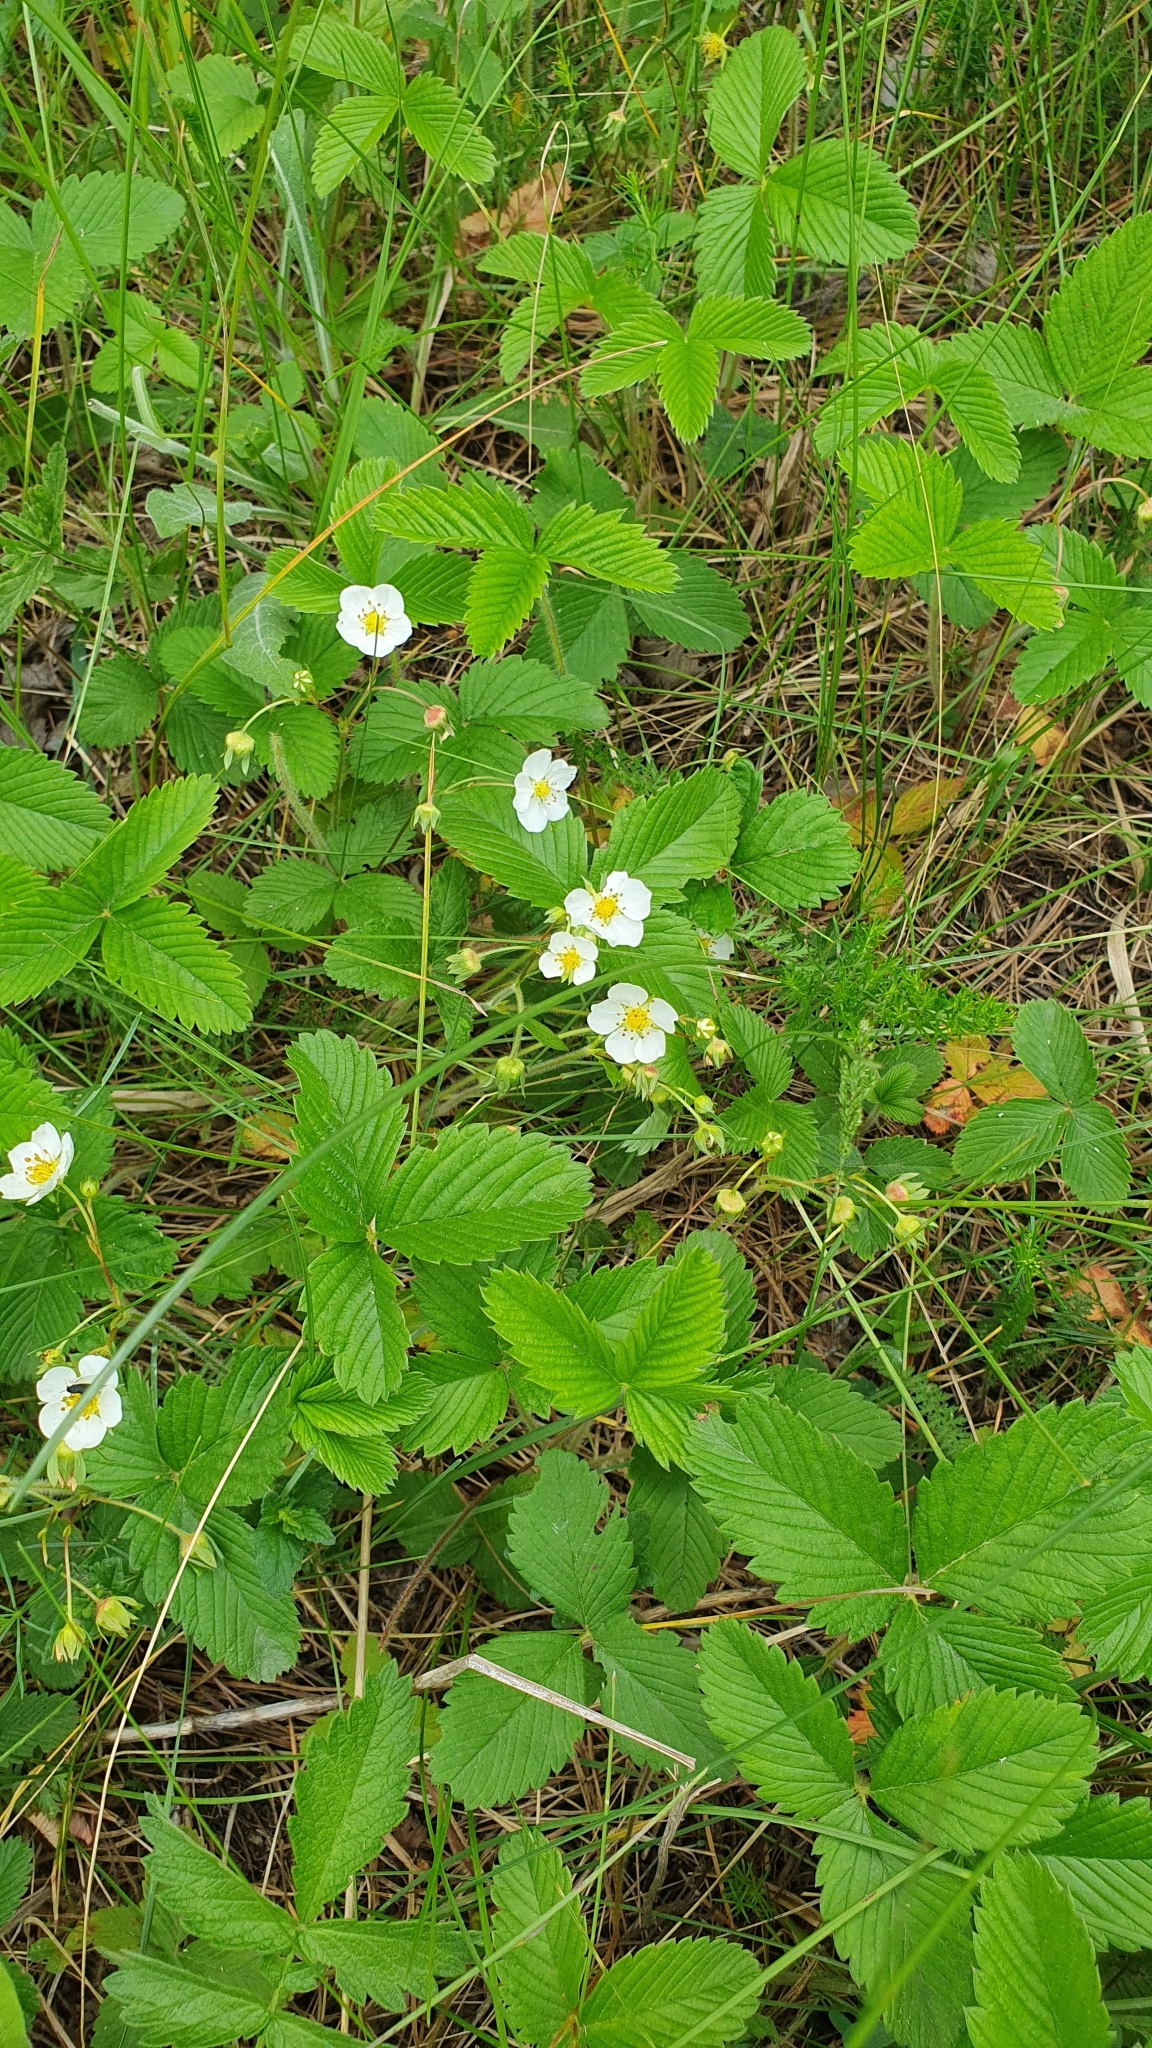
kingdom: Plantae
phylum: Tracheophyta
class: Magnoliopsida
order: Rosales
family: Rosaceae
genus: Fragaria
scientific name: Fragaria viridis
